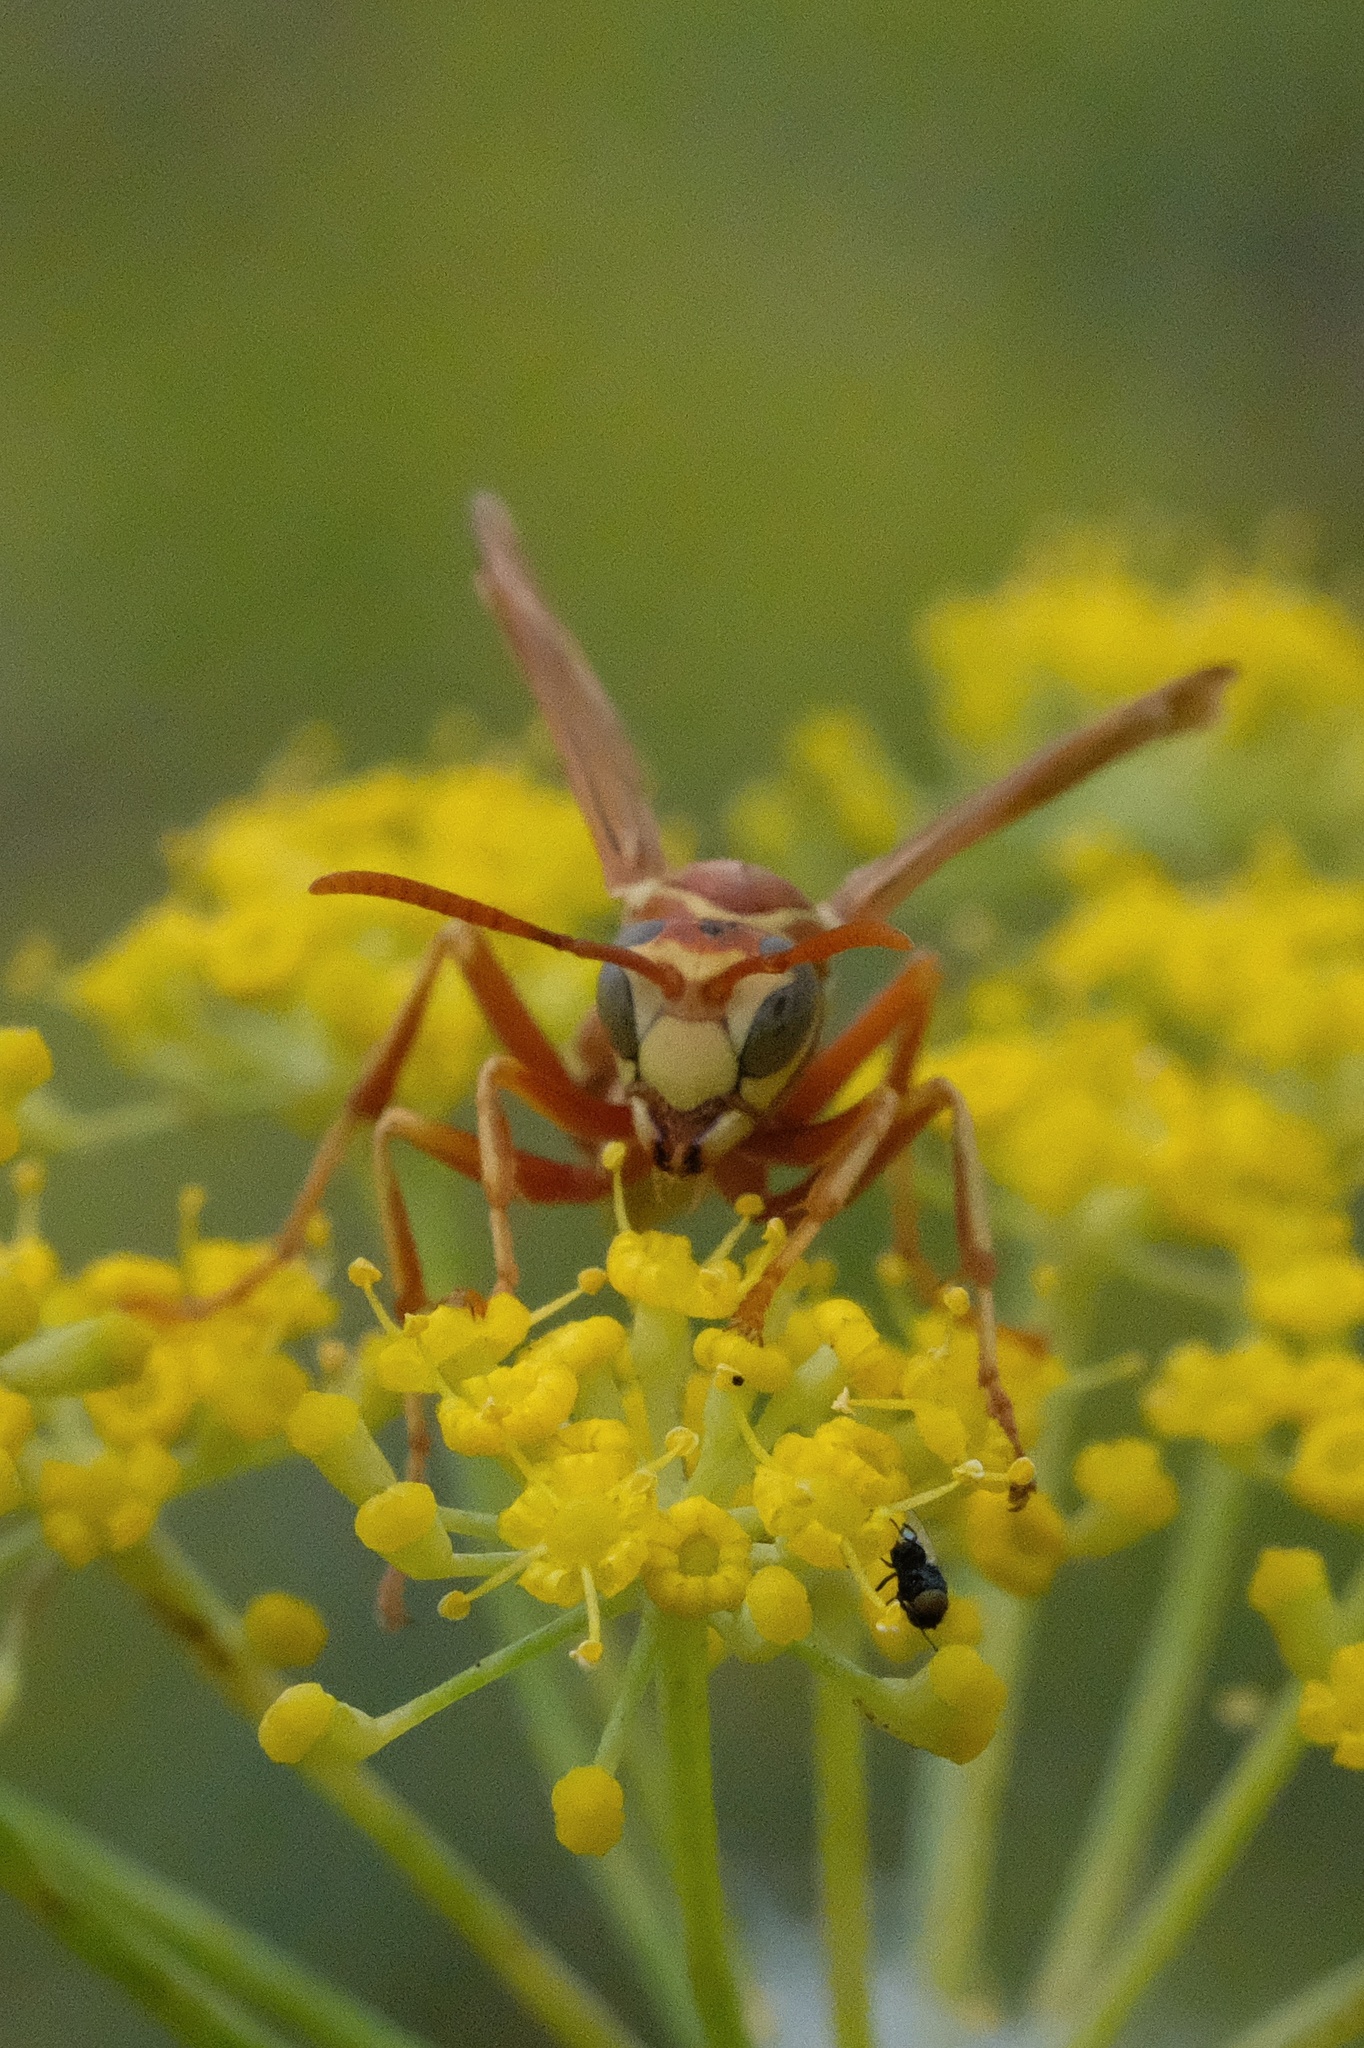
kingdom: Animalia
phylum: Arthropoda
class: Insecta
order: Hymenoptera
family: Eumenidae
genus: Polistes
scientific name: Polistes apachus
